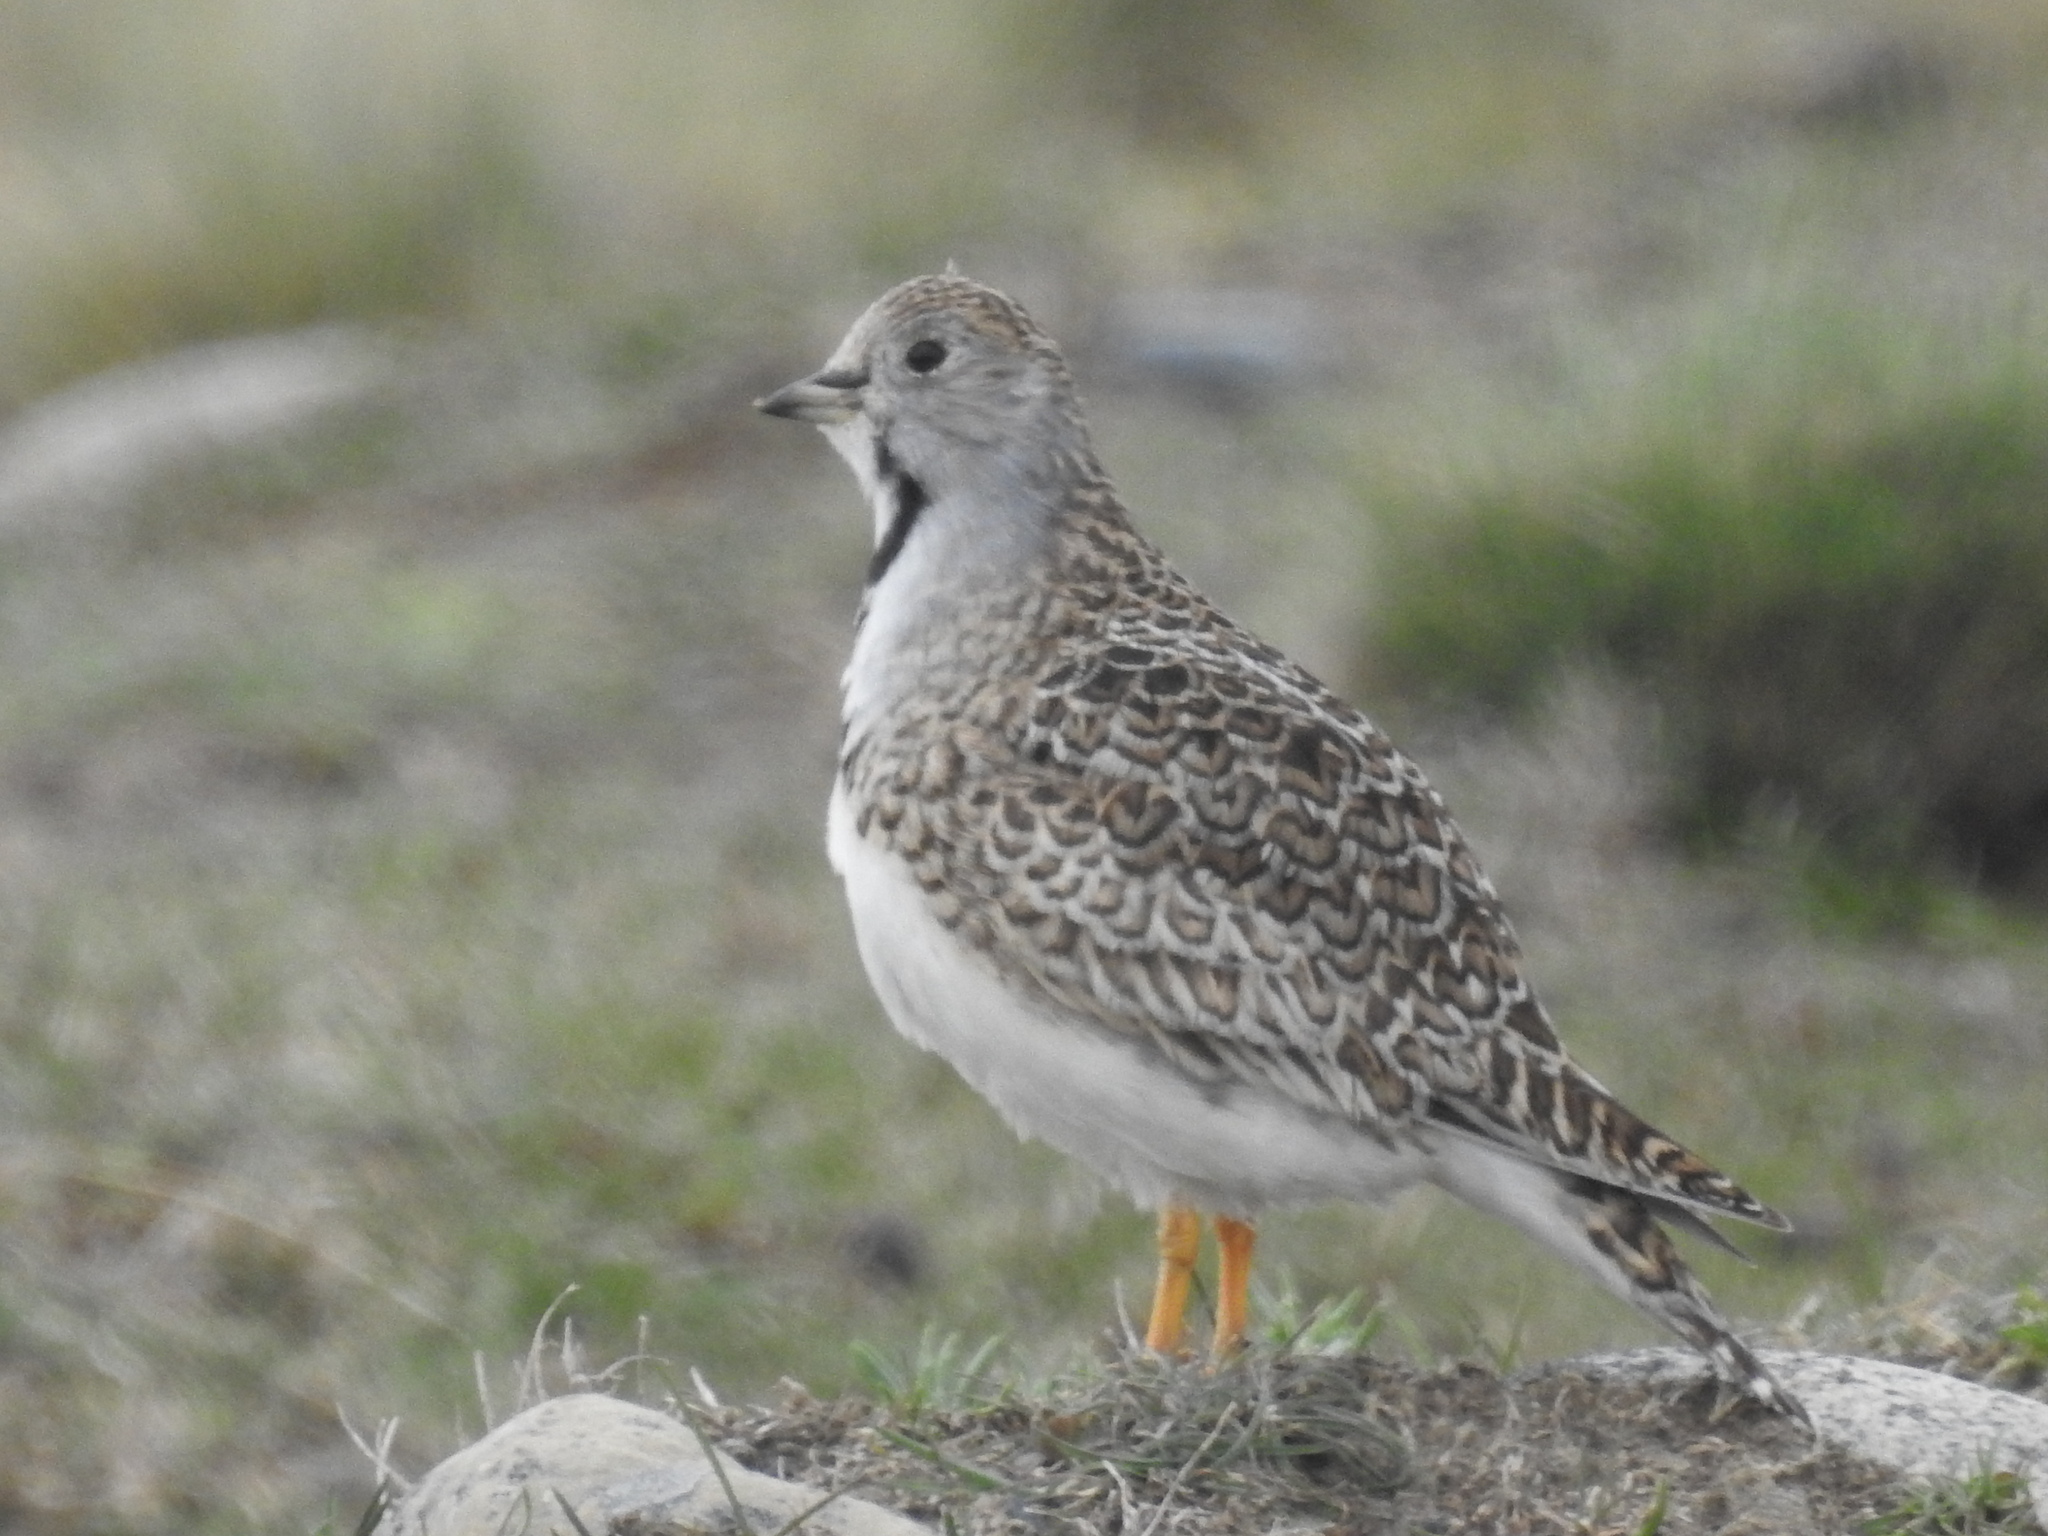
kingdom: Animalia
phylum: Chordata
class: Aves
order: Charadriiformes
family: Thinocoridae
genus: Thinocorus
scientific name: Thinocorus rumicivorus
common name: Least seedsnipe
